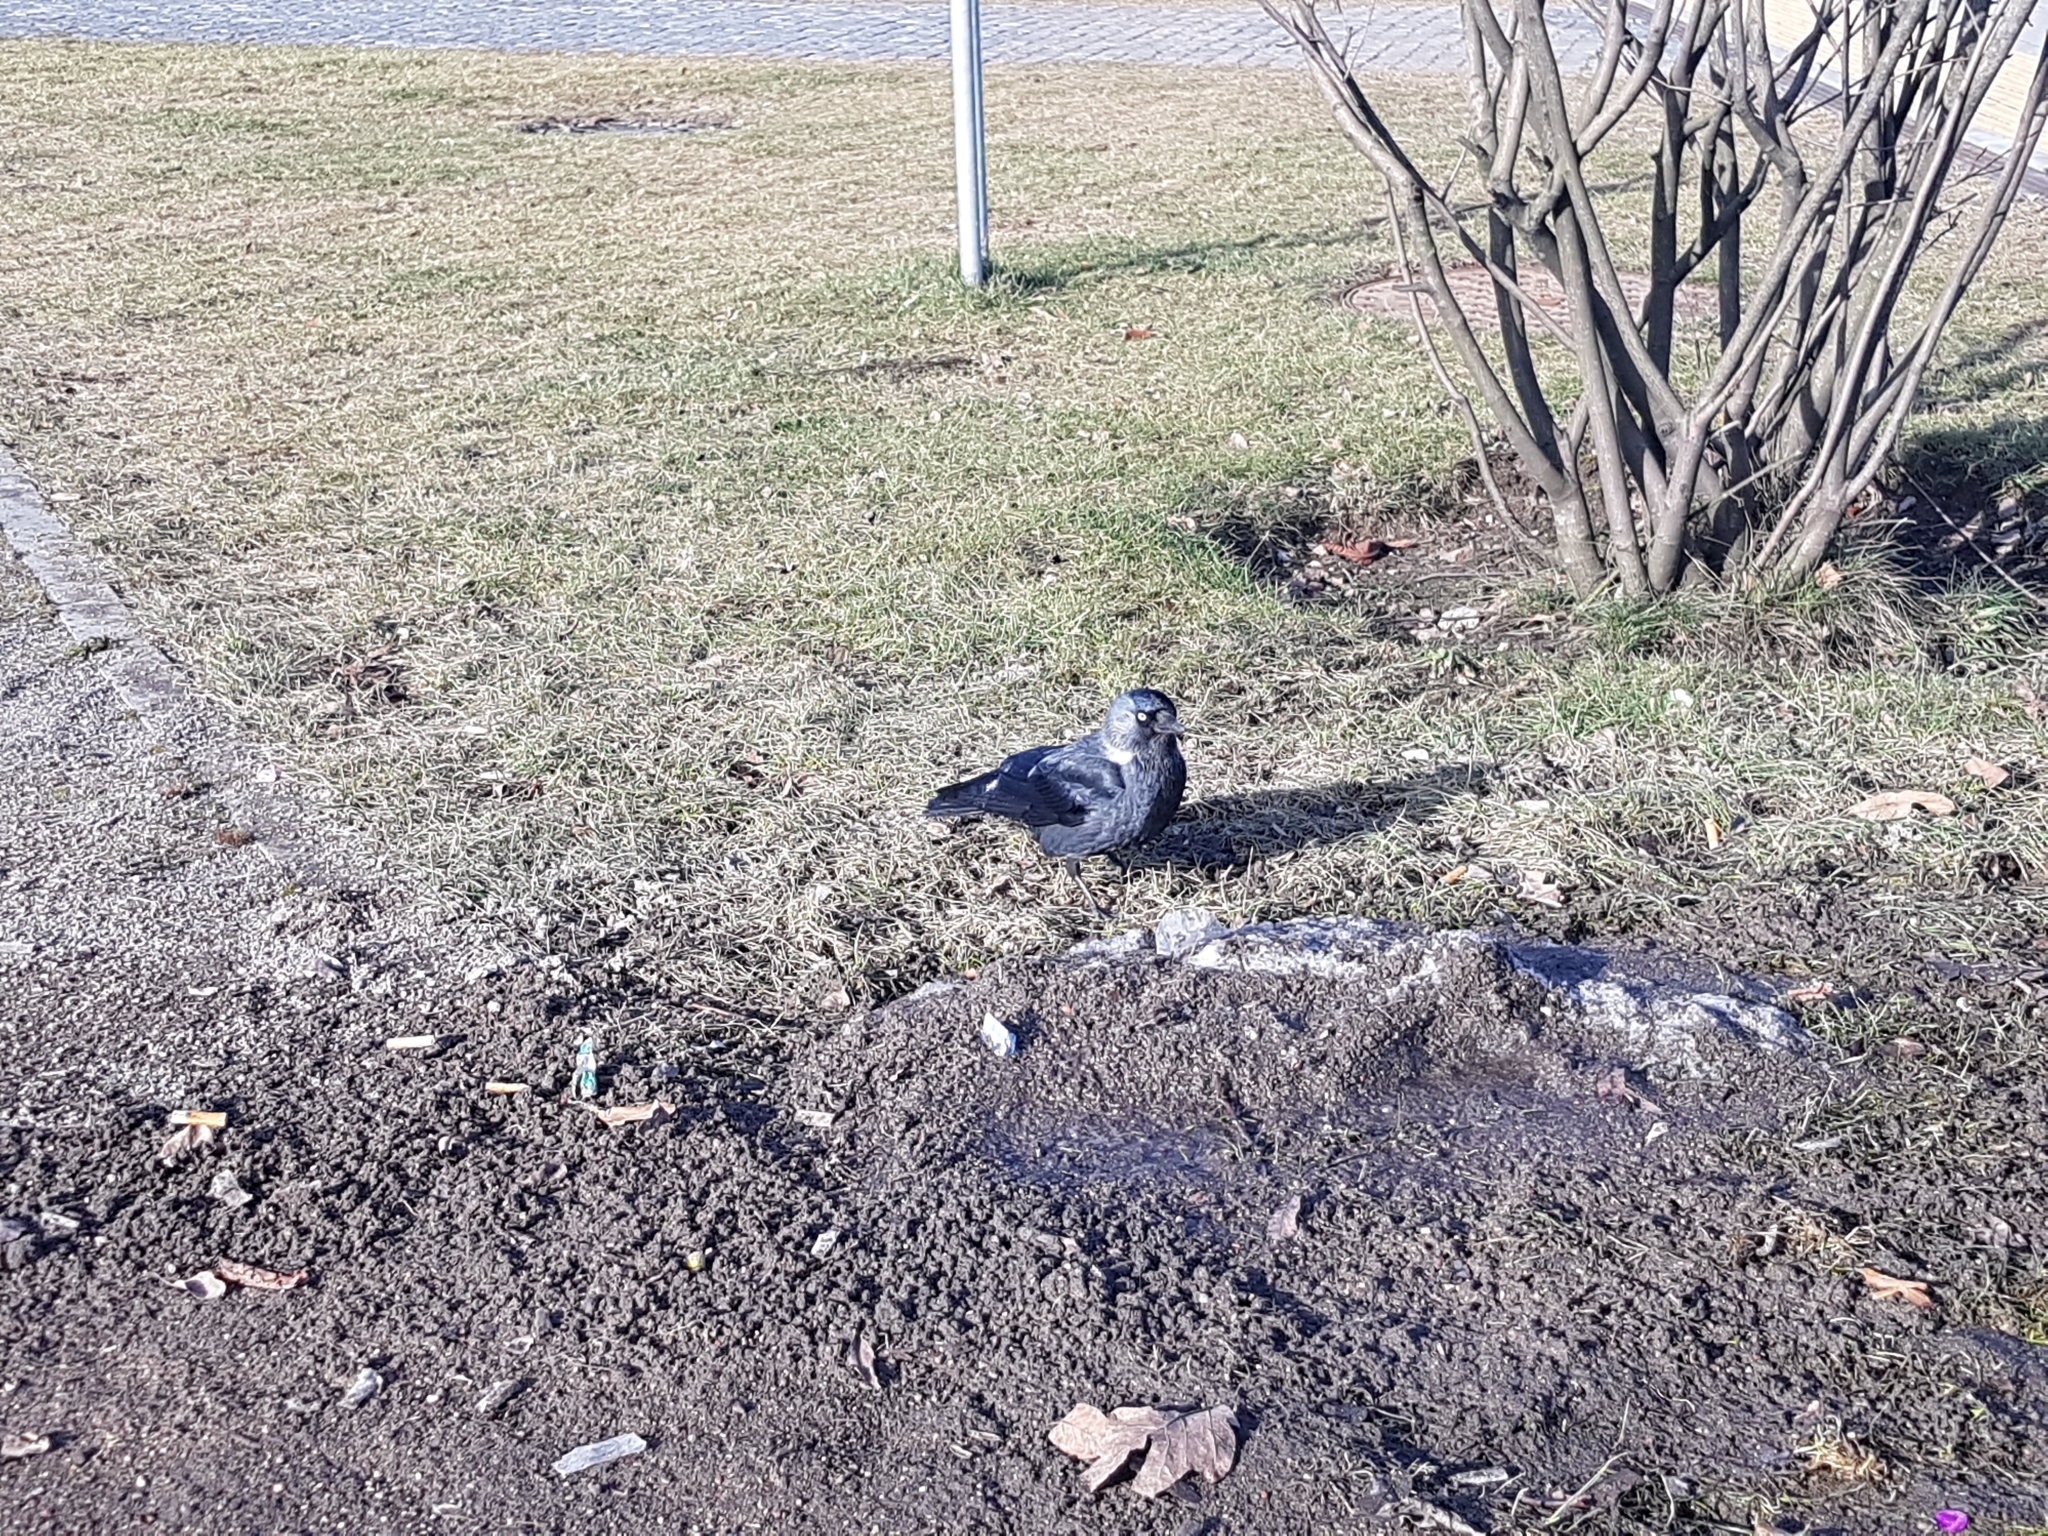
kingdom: Animalia
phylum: Chordata
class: Aves
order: Passeriformes
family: Corvidae
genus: Coloeus
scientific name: Coloeus monedula
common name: Western jackdaw
